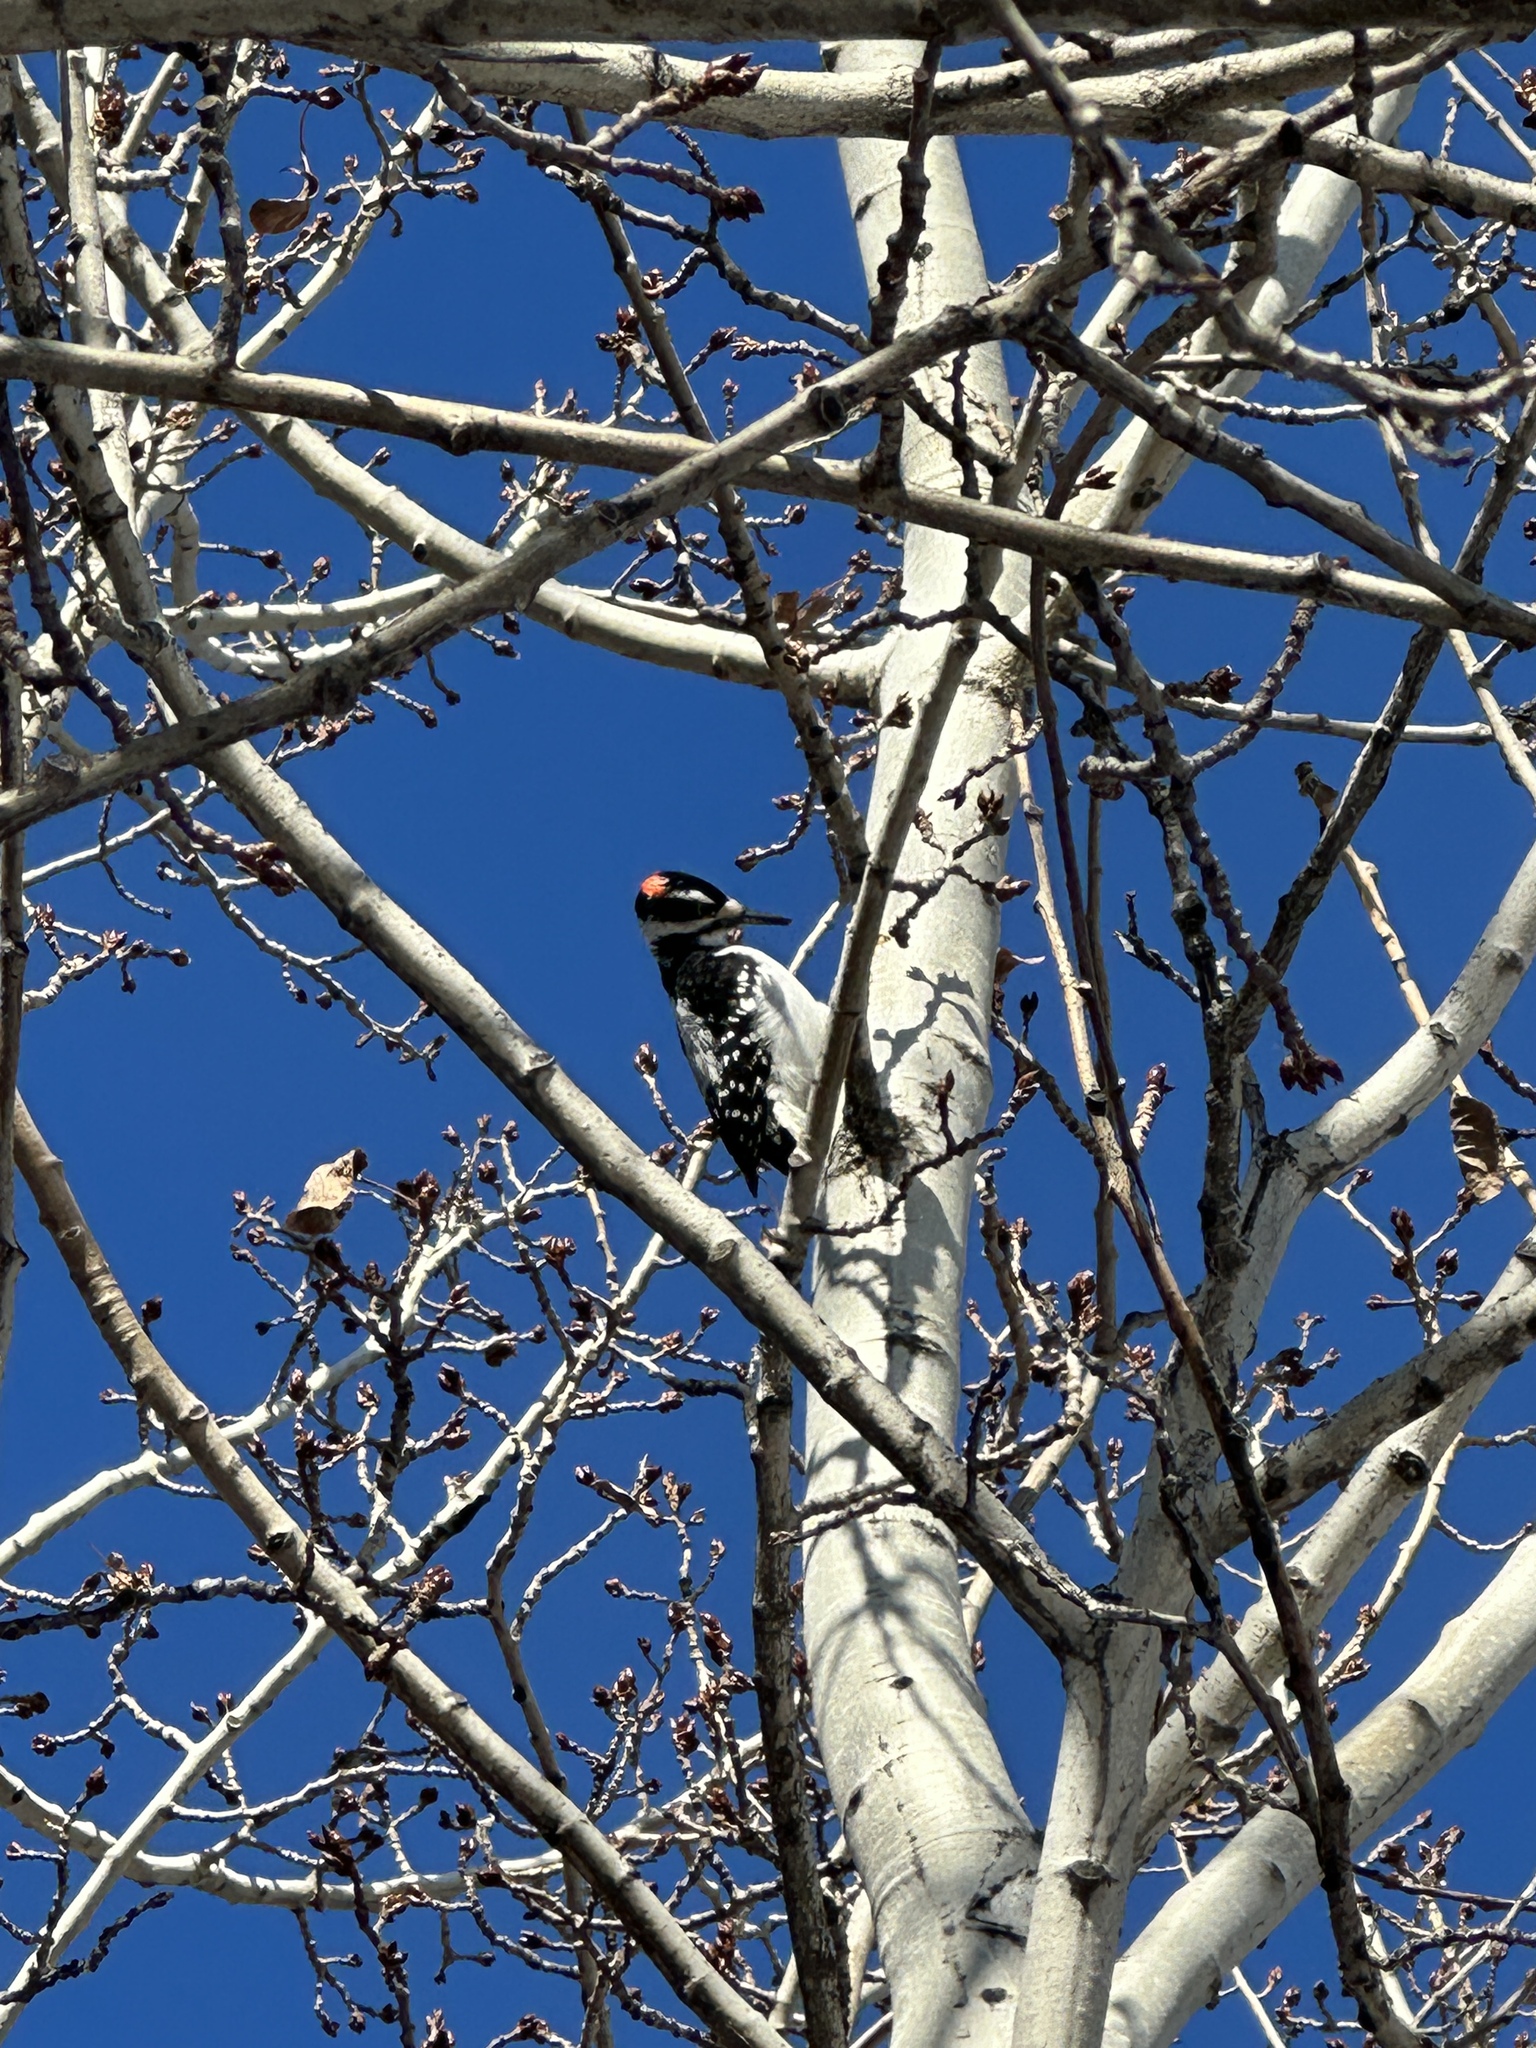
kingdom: Animalia
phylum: Chordata
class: Aves
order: Piciformes
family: Picidae
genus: Leuconotopicus
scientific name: Leuconotopicus villosus
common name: Hairy woodpecker
